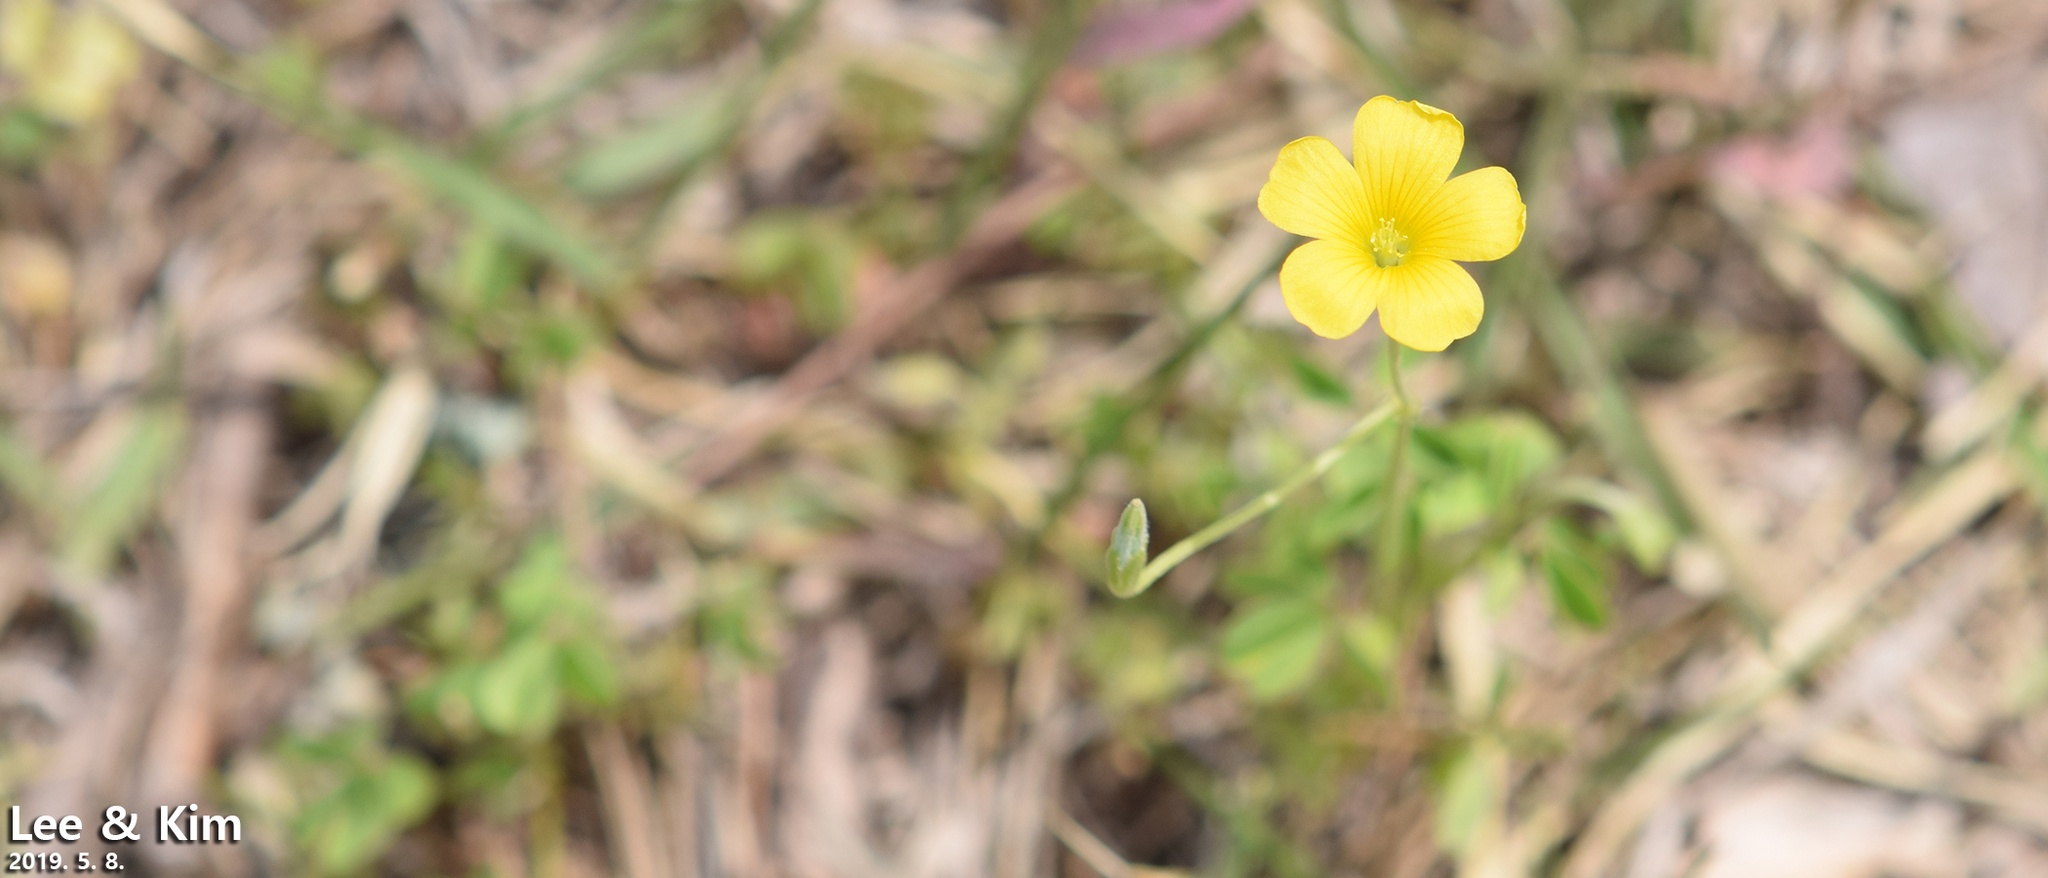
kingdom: Plantae
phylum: Tracheophyta
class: Magnoliopsida
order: Oxalidales
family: Oxalidaceae
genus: Oxalis
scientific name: Oxalis dillenii
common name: Sussex yellow-sorrel
